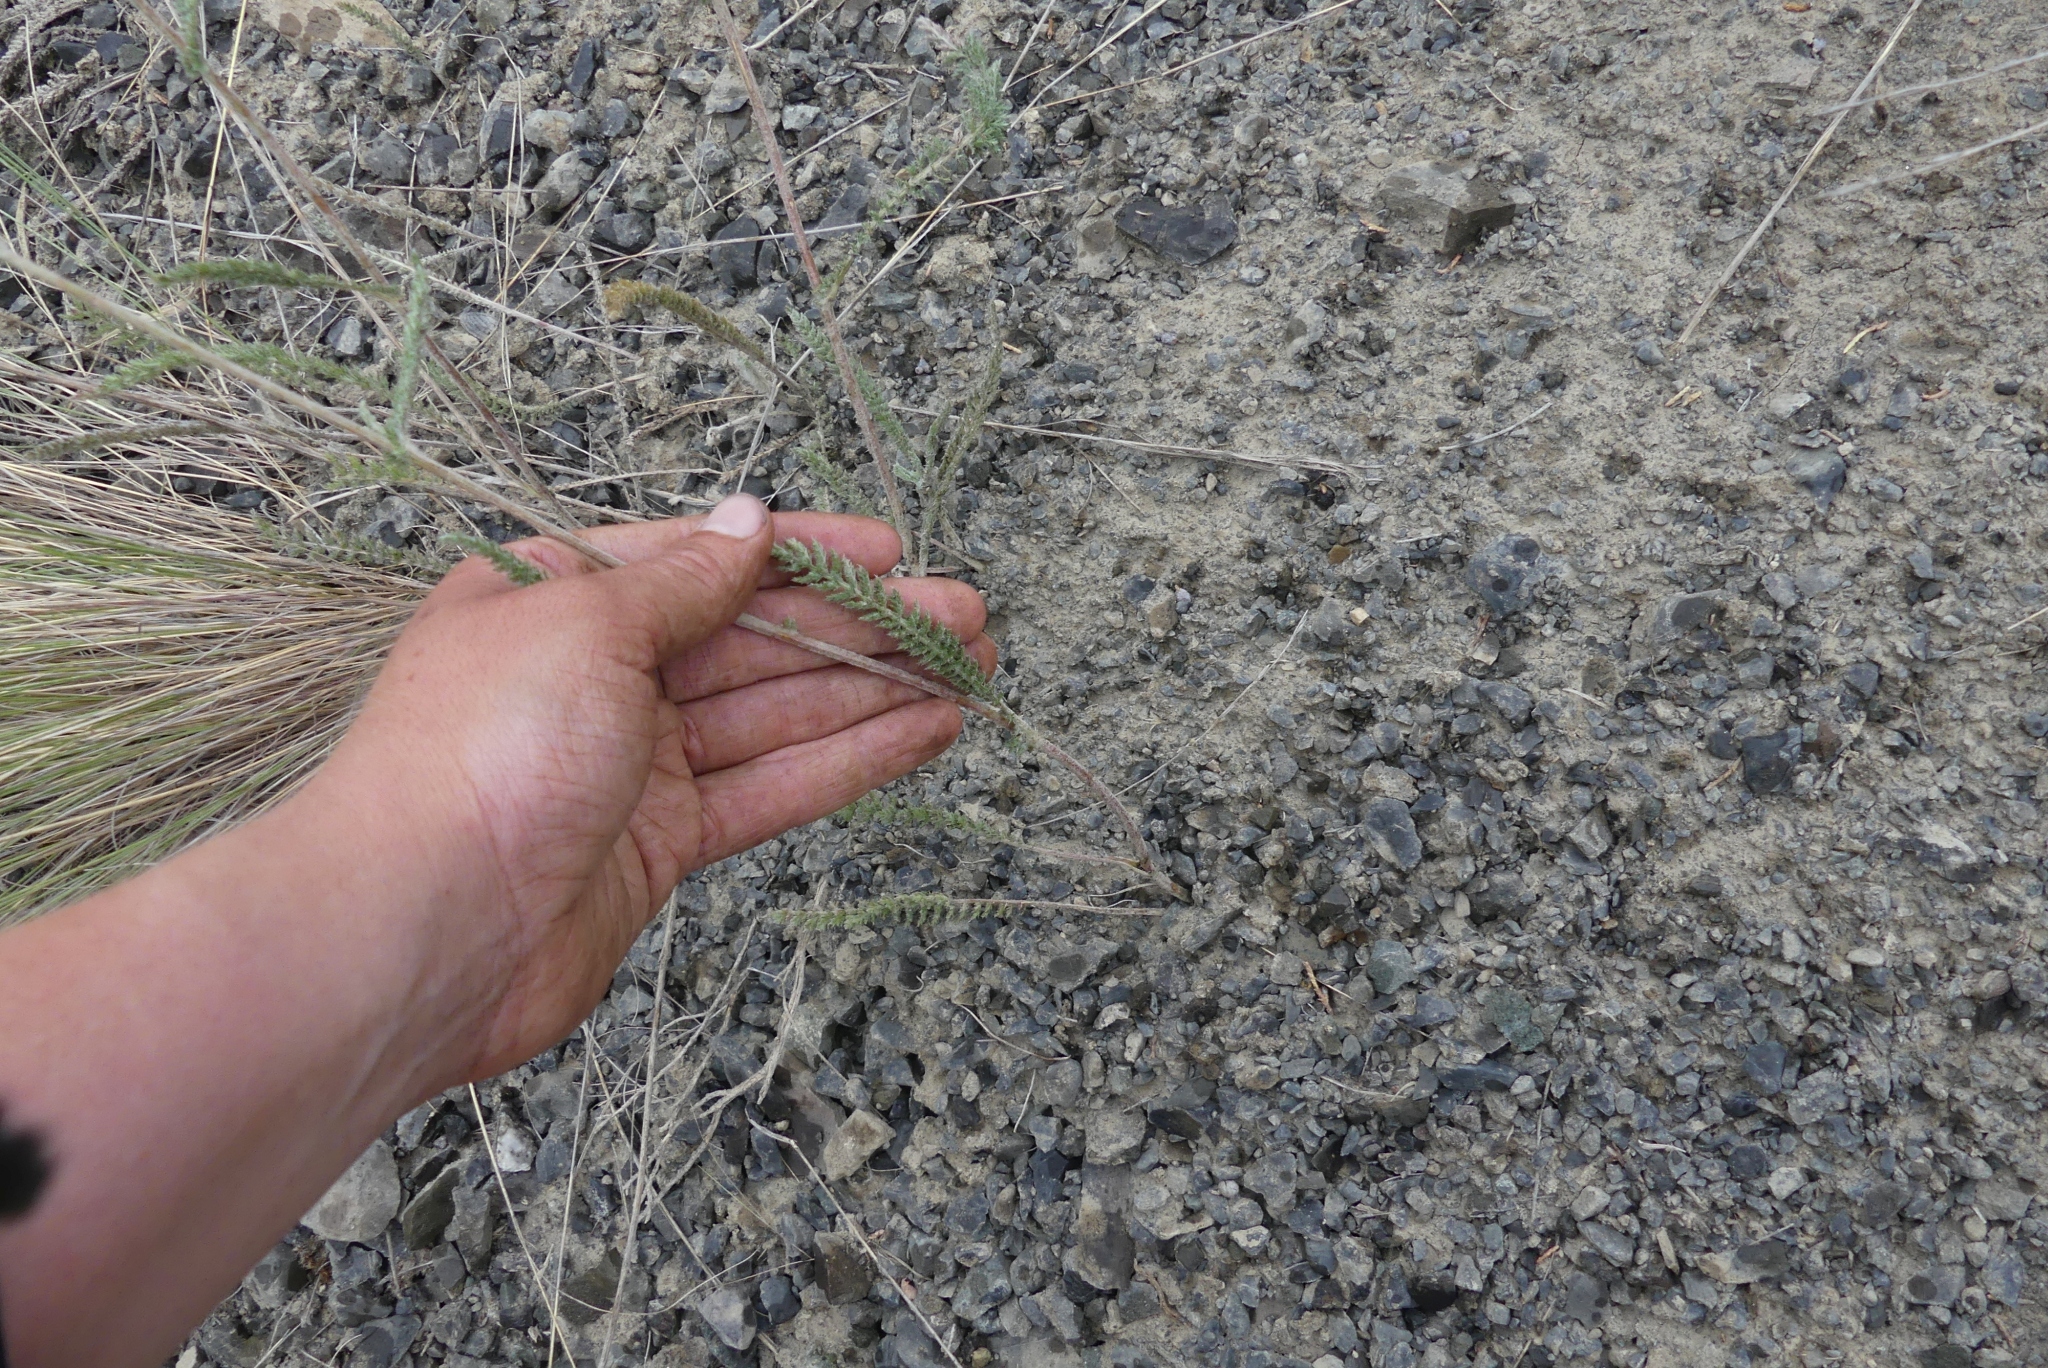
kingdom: Plantae
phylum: Tracheophyta
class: Magnoliopsida
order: Asterales
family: Asteraceae
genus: Achillea
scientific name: Achillea millefolium
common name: Yarrow
